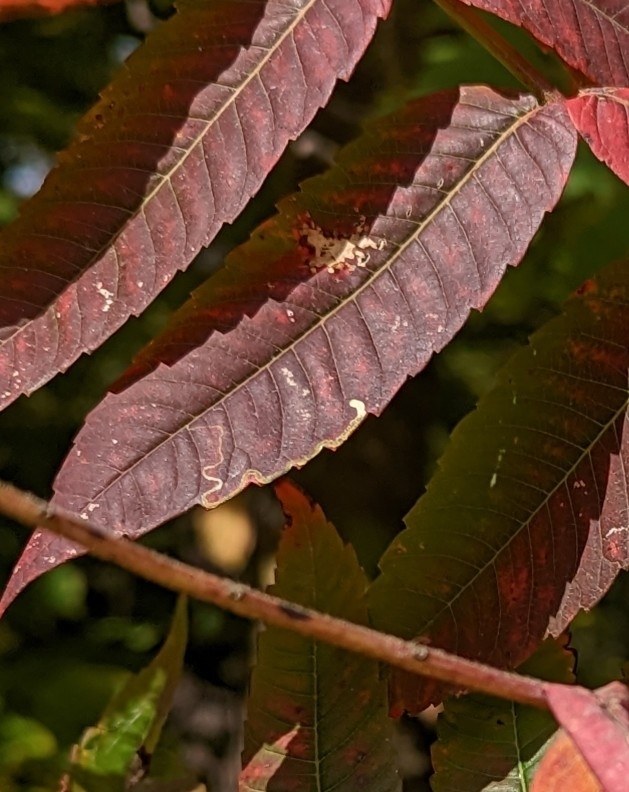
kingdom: Animalia
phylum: Arthropoda
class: Insecta
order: Lepidoptera
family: Nepticulidae
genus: Stigmella
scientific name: Stigmella intermedia
